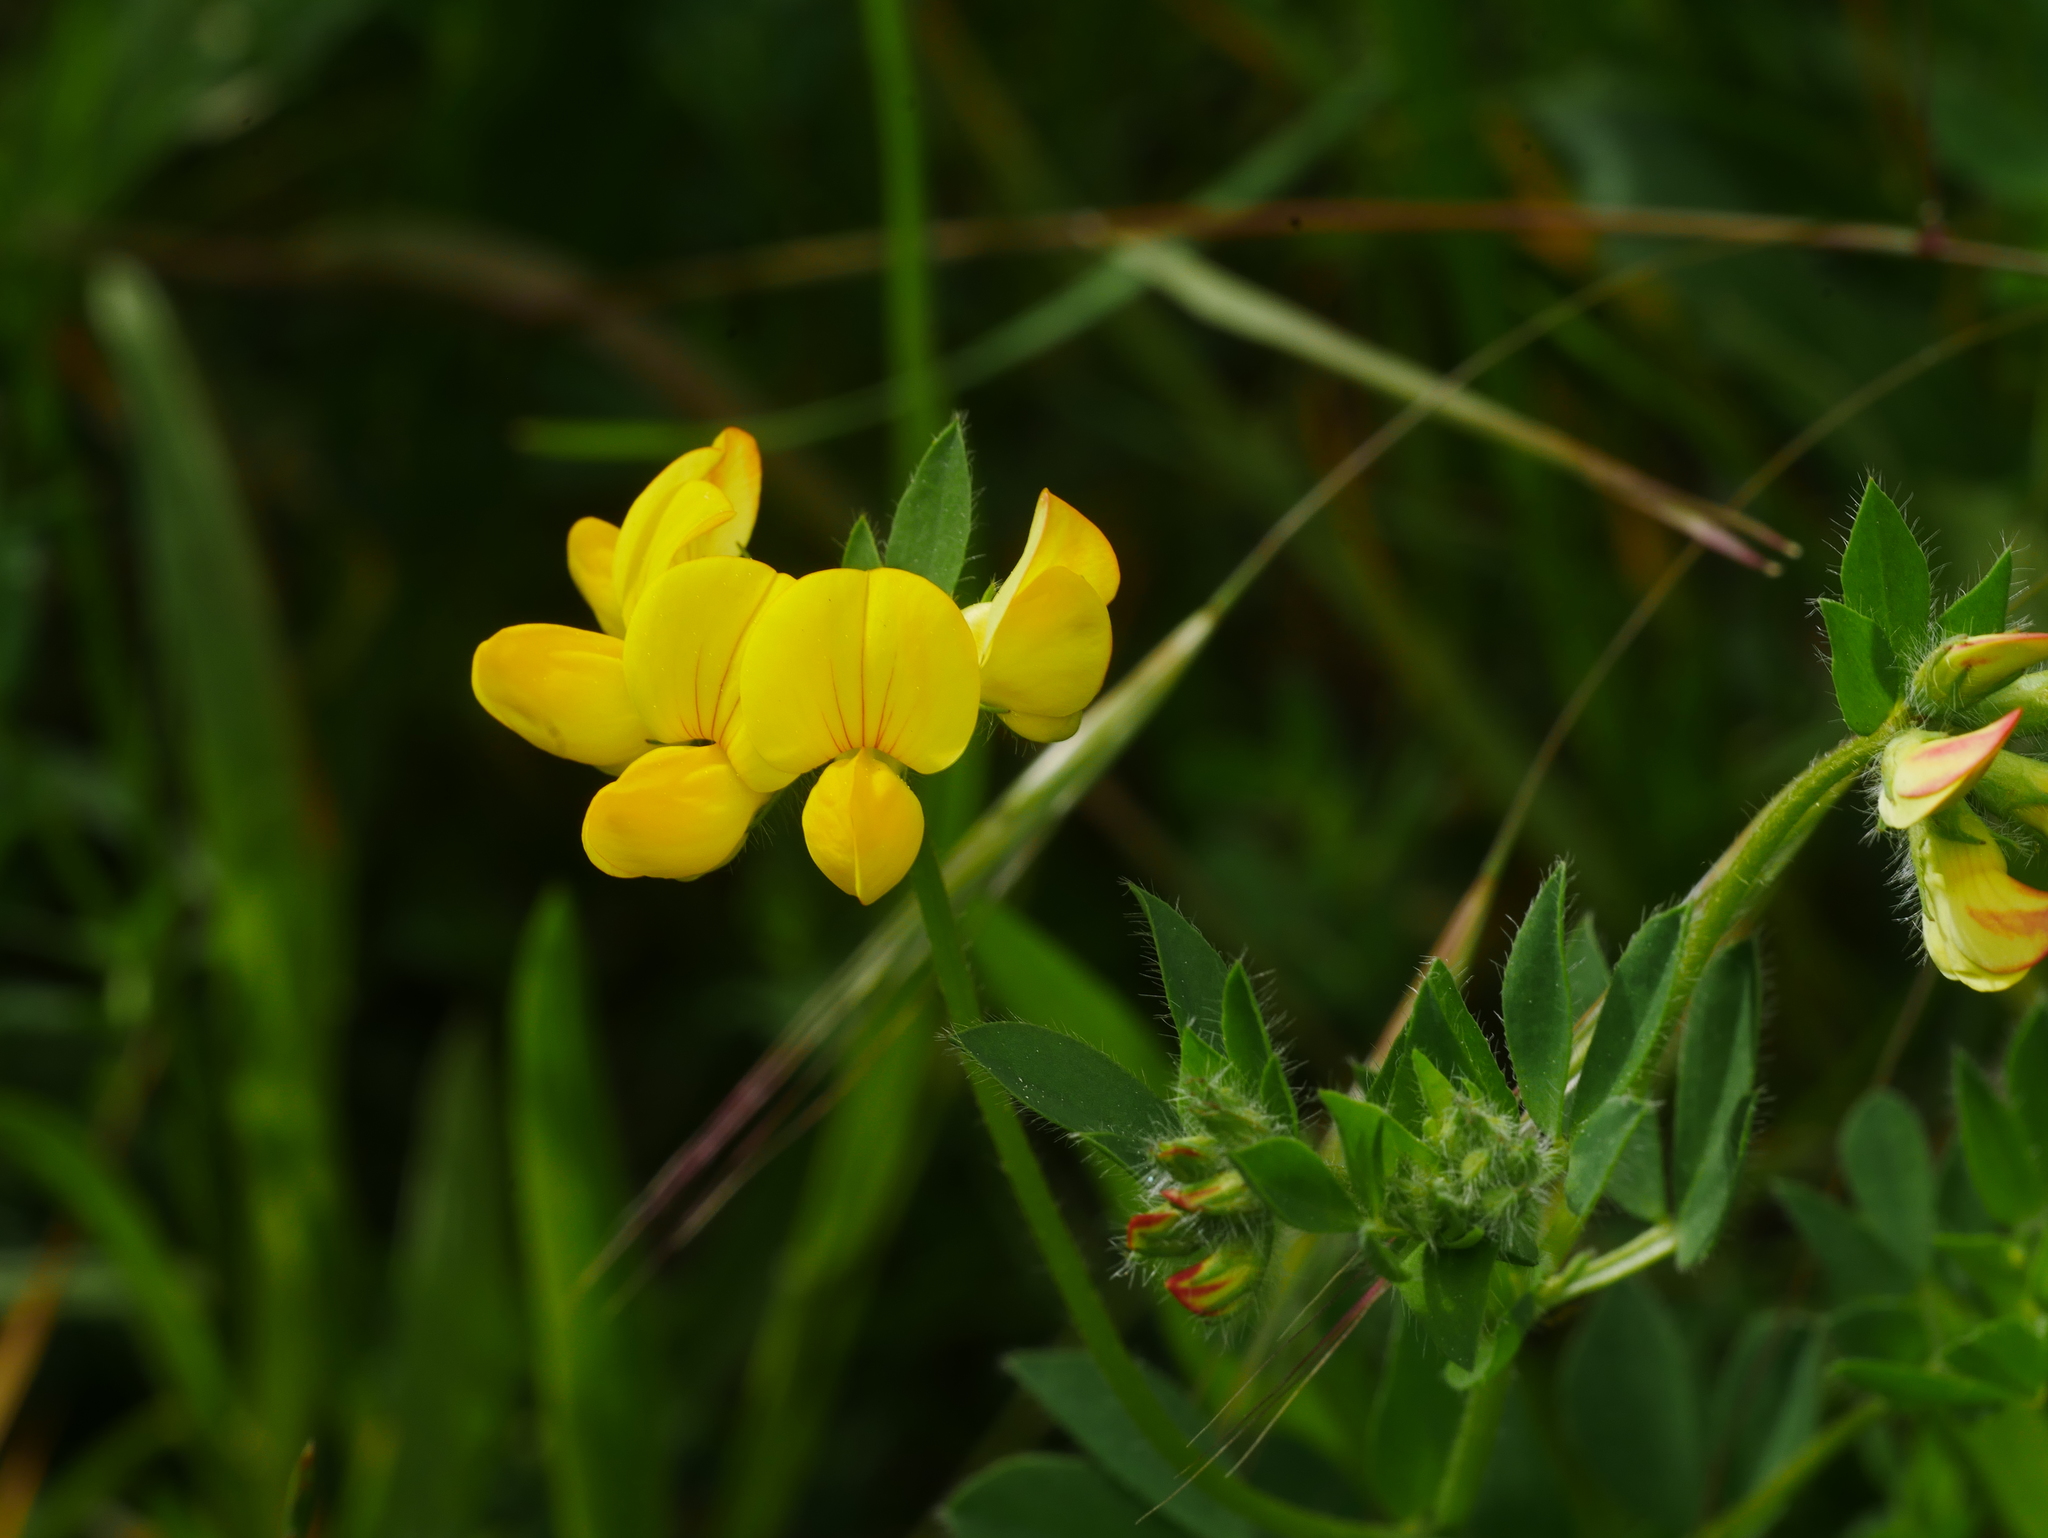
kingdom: Plantae
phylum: Tracheophyta
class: Magnoliopsida
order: Fabales
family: Fabaceae
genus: Lotus
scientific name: Lotus corniculatus
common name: Common bird's-foot-trefoil
